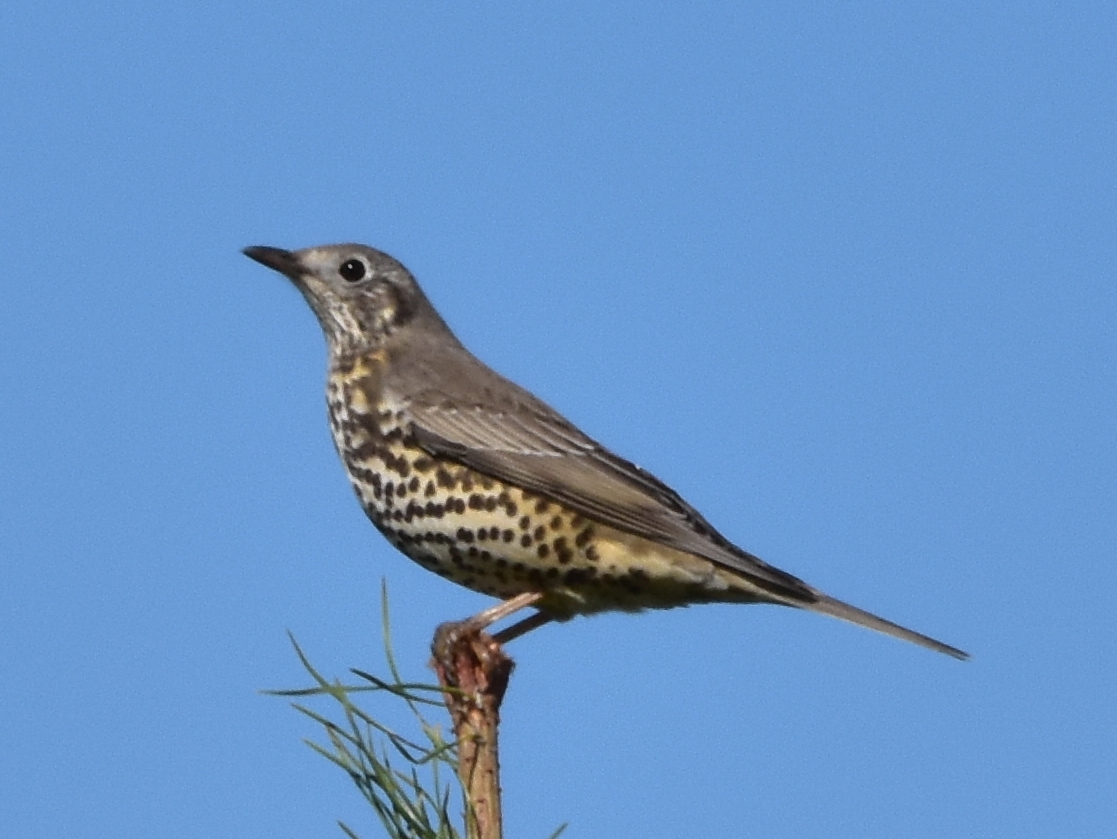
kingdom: Animalia
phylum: Chordata
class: Aves
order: Passeriformes
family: Turdidae
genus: Turdus
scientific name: Turdus viscivorus
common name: Mistle thrush
